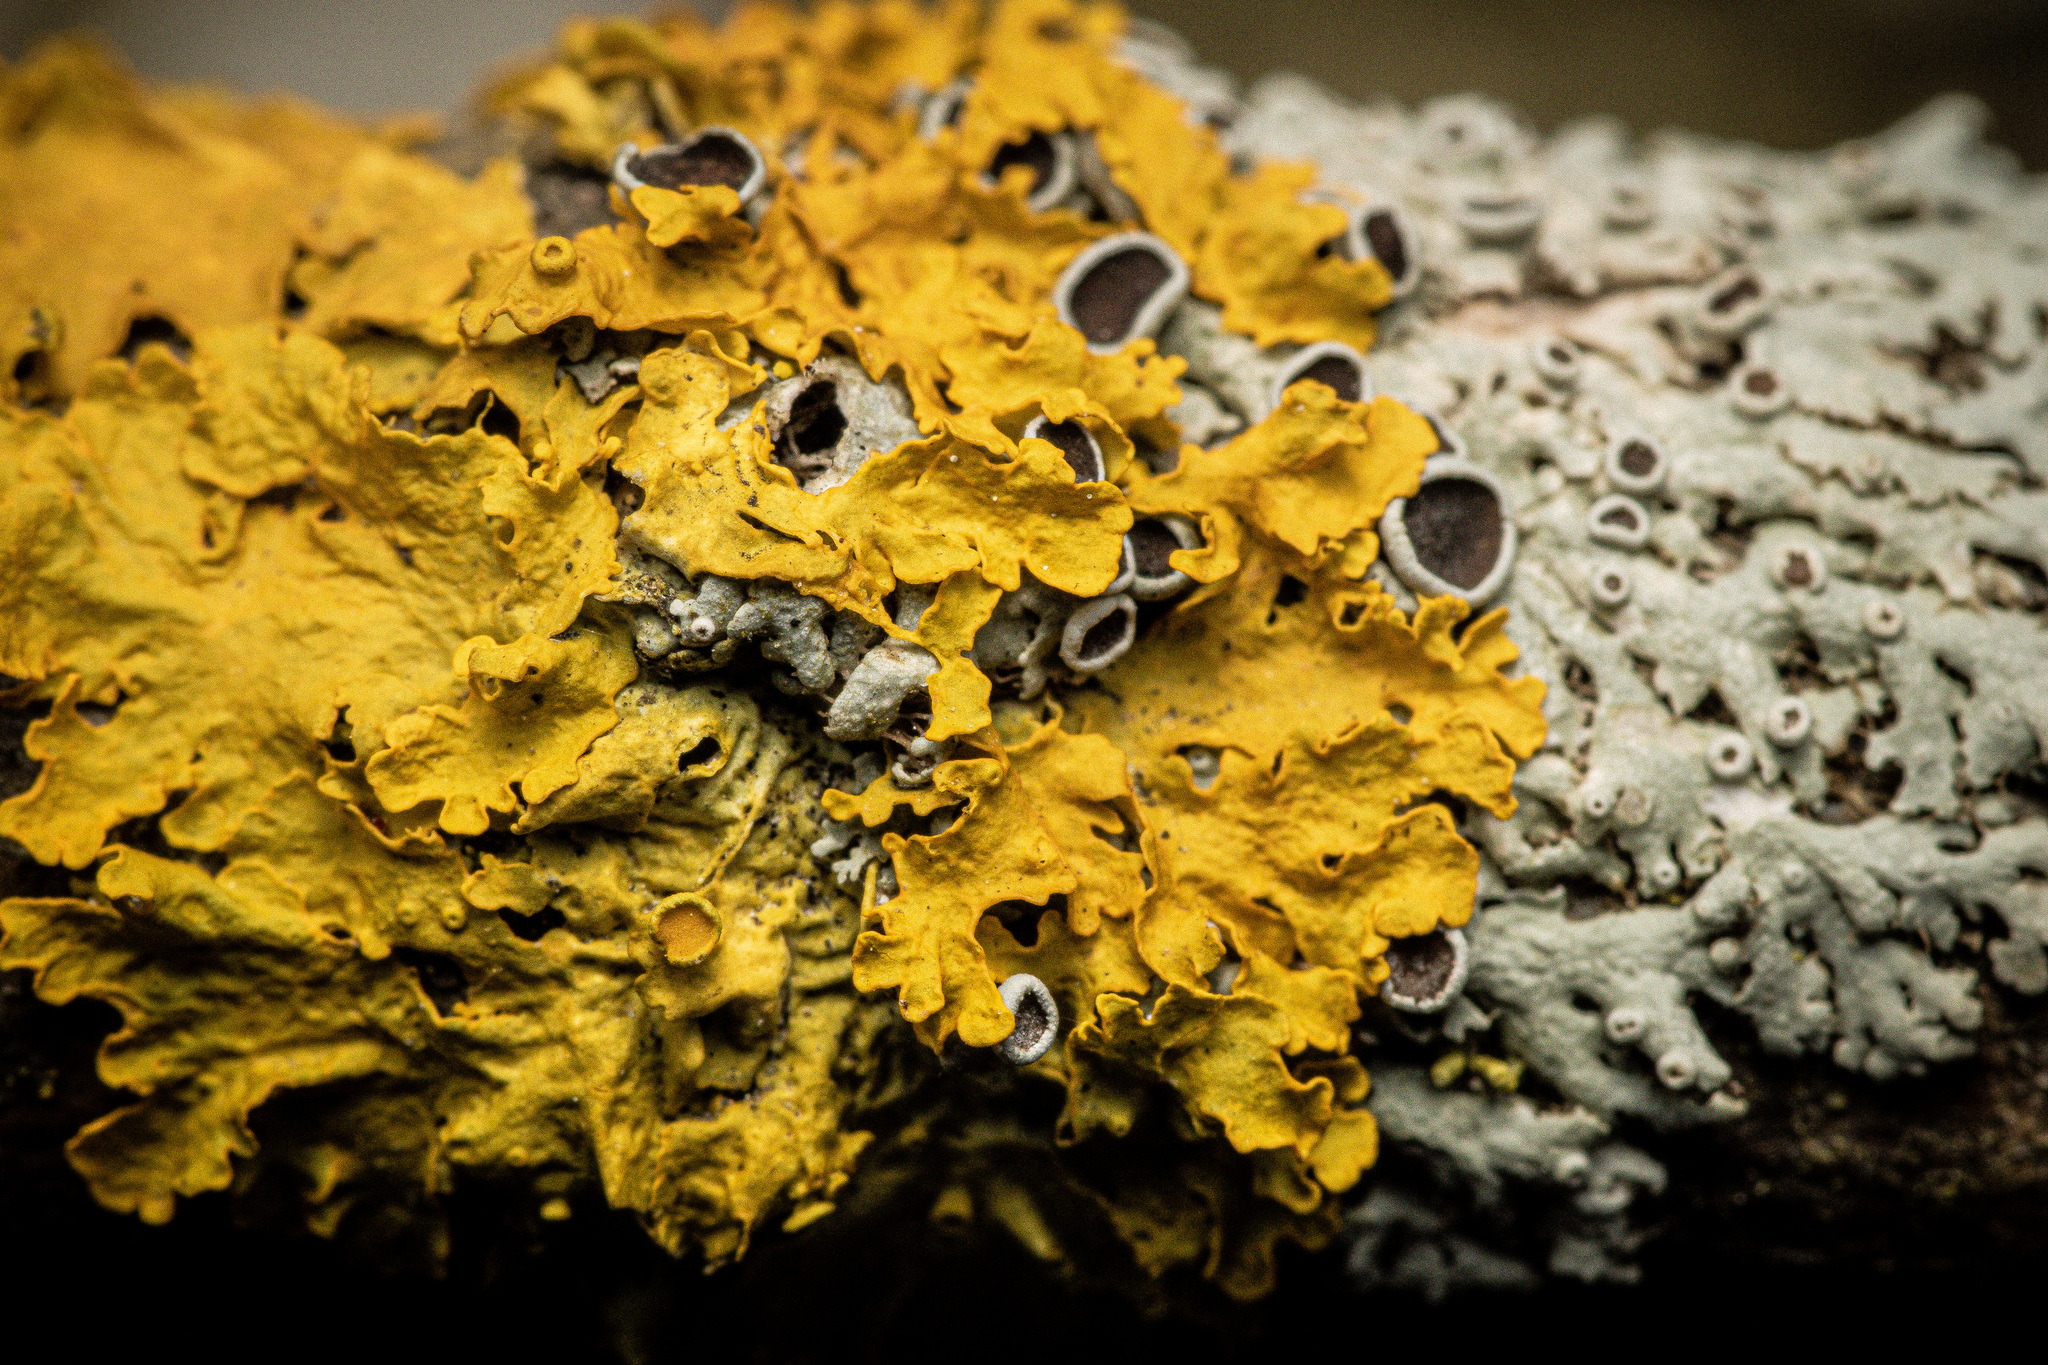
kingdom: Fungi
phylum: Ascomycota
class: Lecanoromycetes
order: Teloschistales
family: Teloschistaceae
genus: Xanthoria
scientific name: Xanthoria parietina
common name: Common orange lichen
